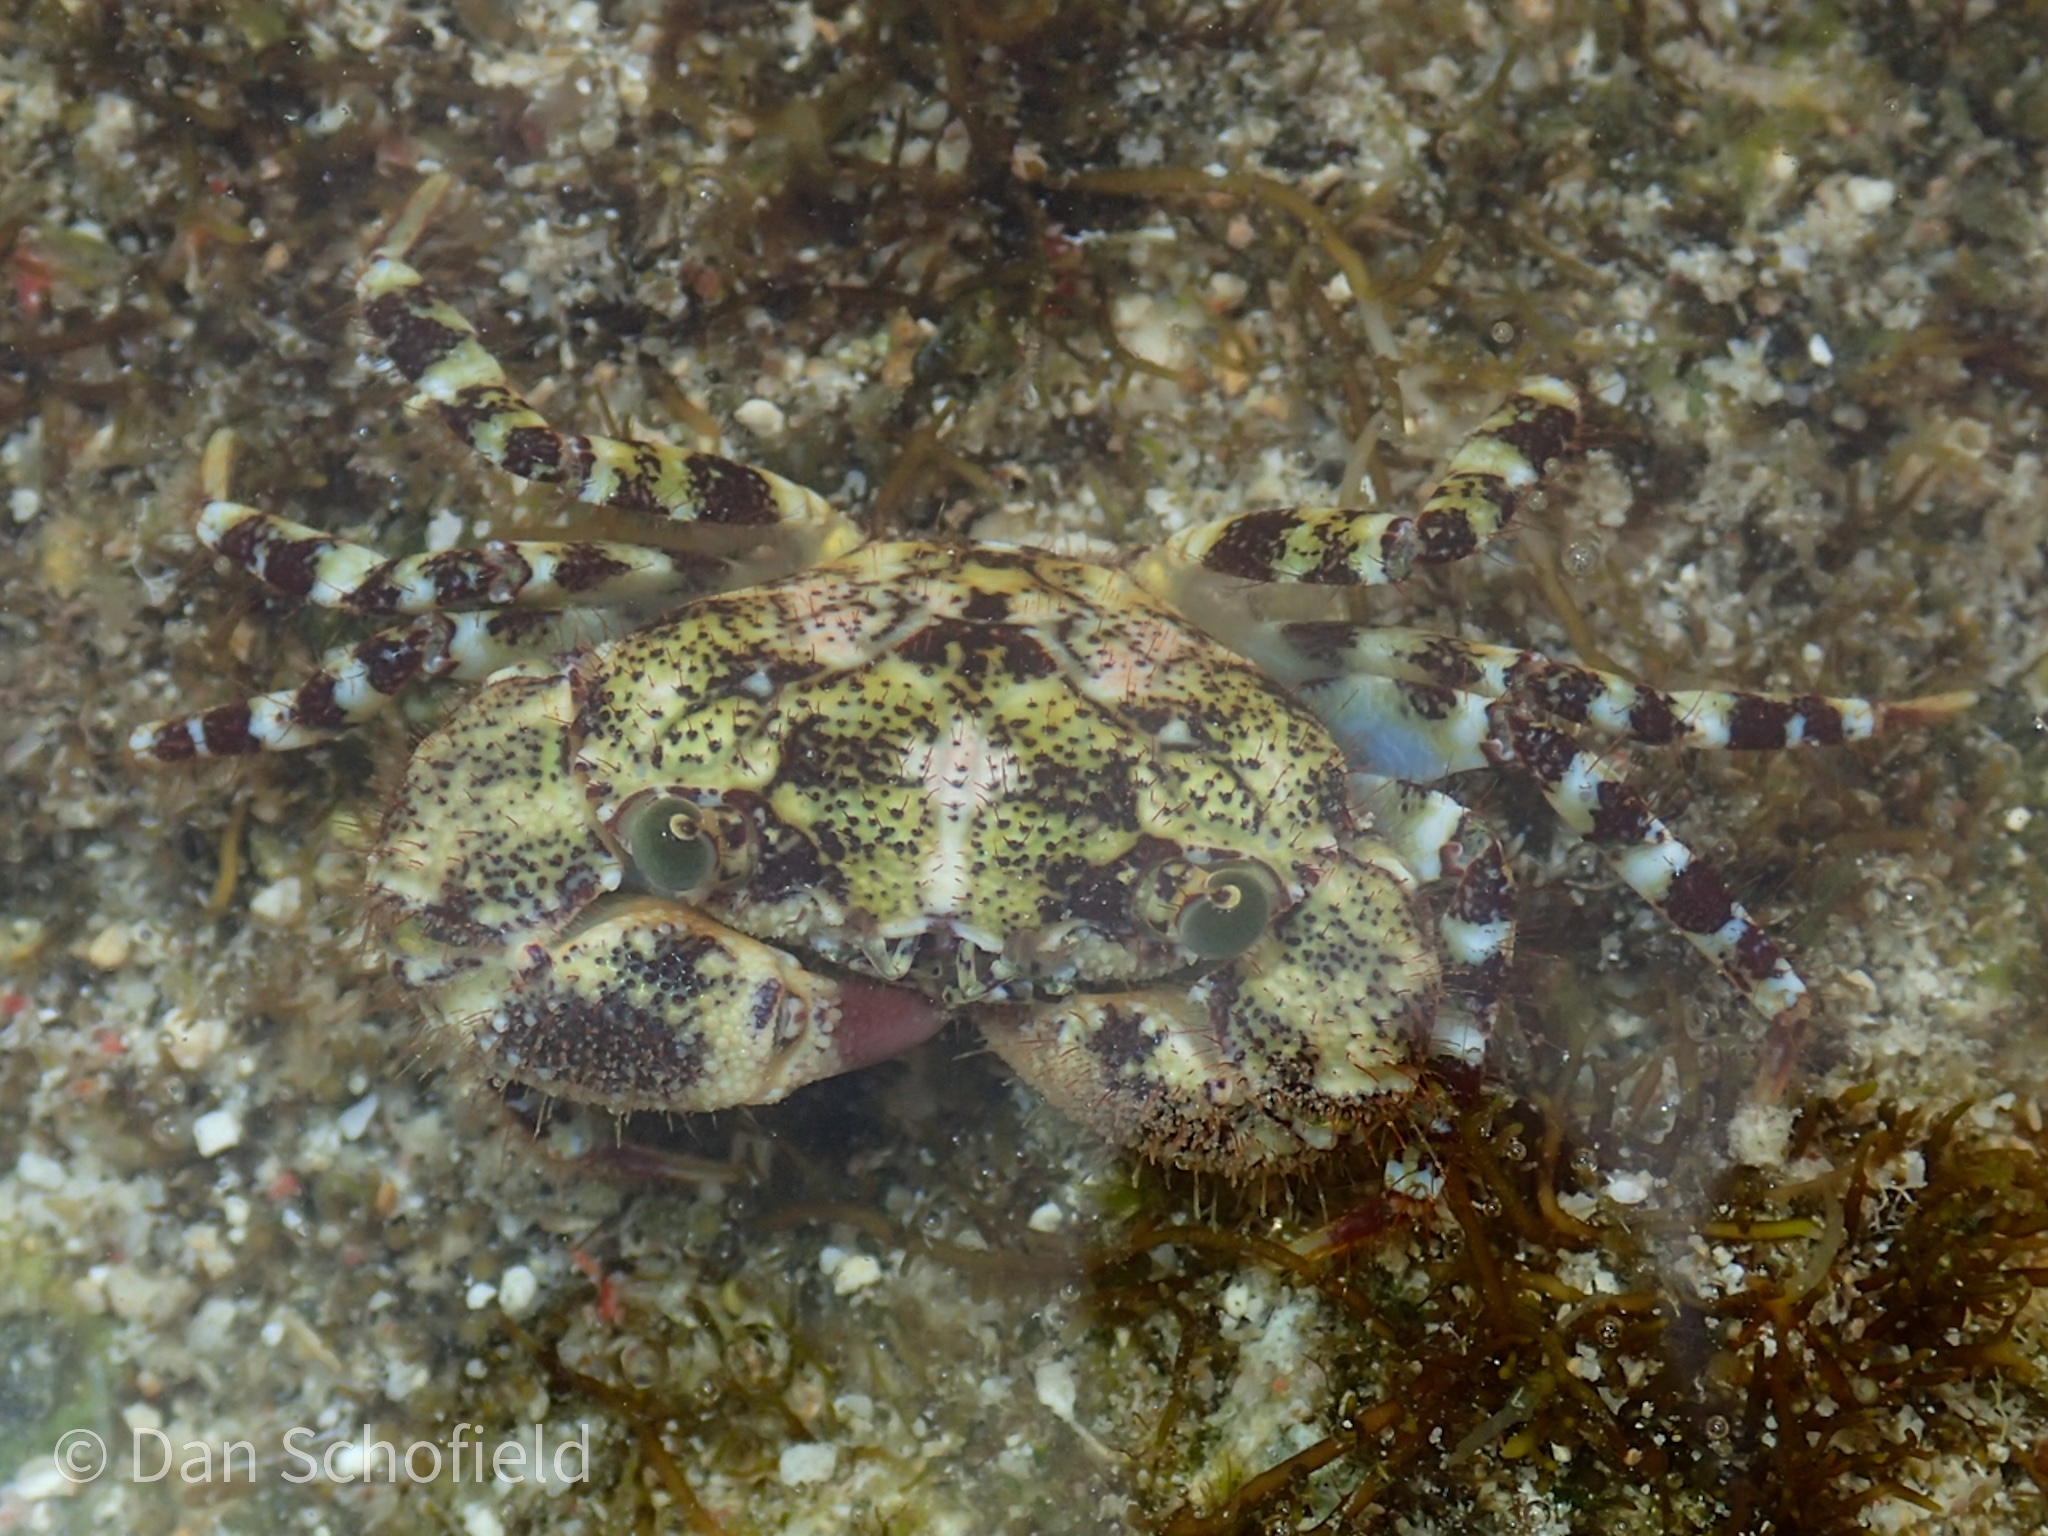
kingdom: Animalia
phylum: Arthropoda
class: Malacostraca
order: Decapoda
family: Eriphiidae
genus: Eriphia
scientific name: Eriphia scabricula
